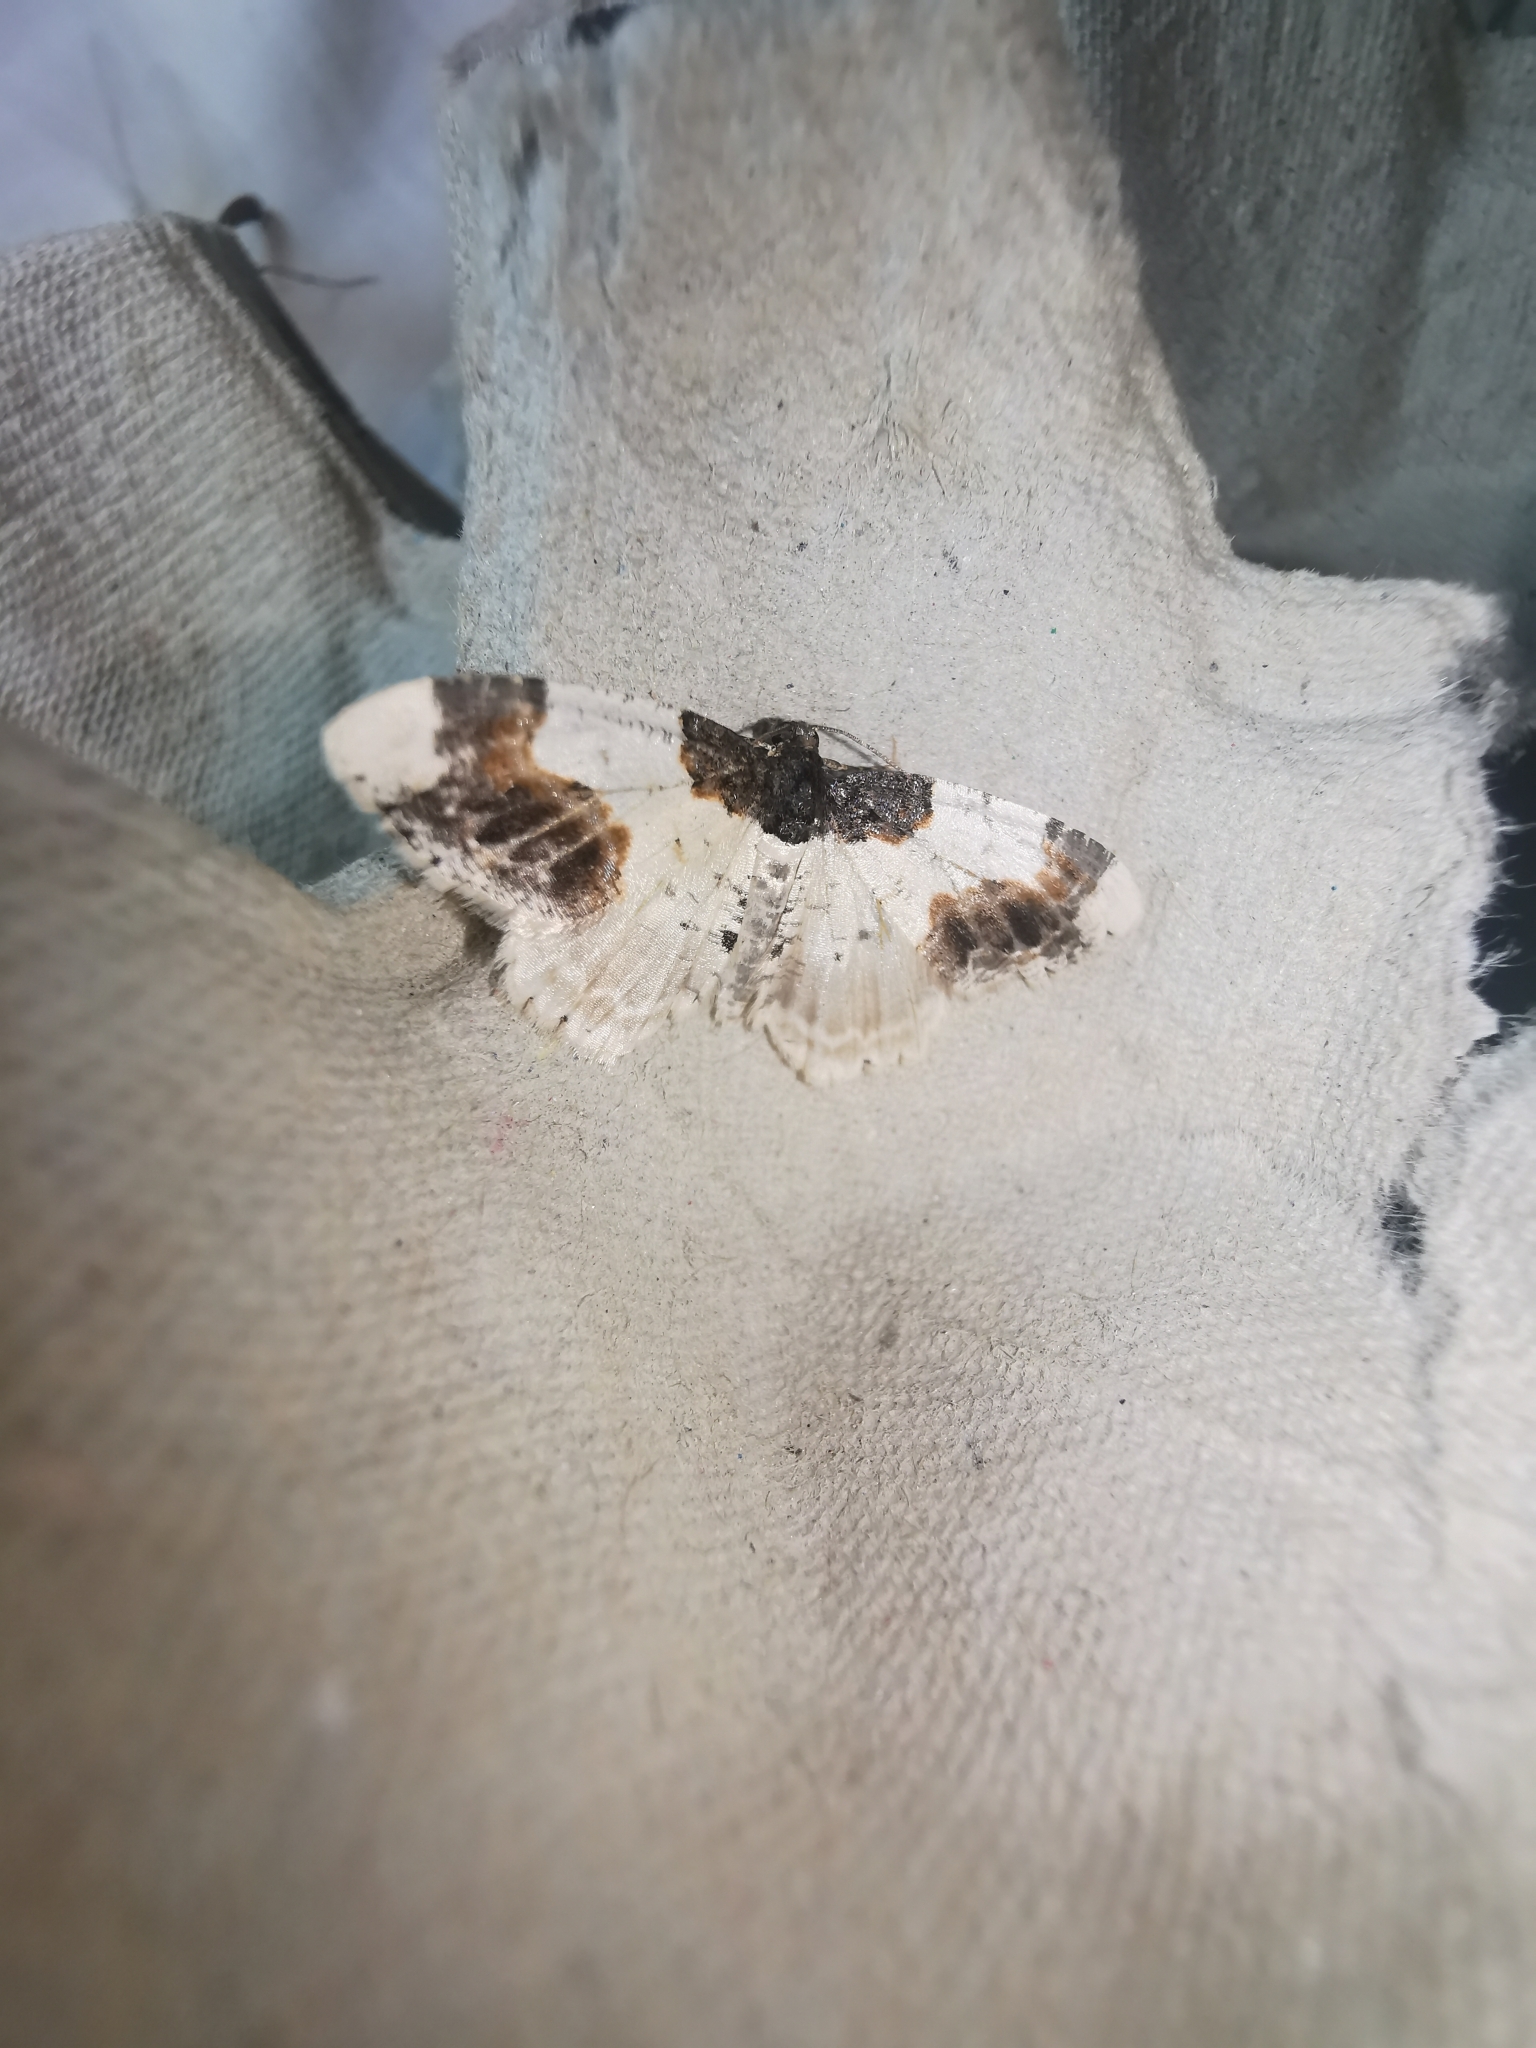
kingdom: Animalia
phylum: Arthropoda
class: Insecta
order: Lepidoptera
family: Geometridae
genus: Ligdia
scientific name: Ligdia adustata
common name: Scorched carpet
